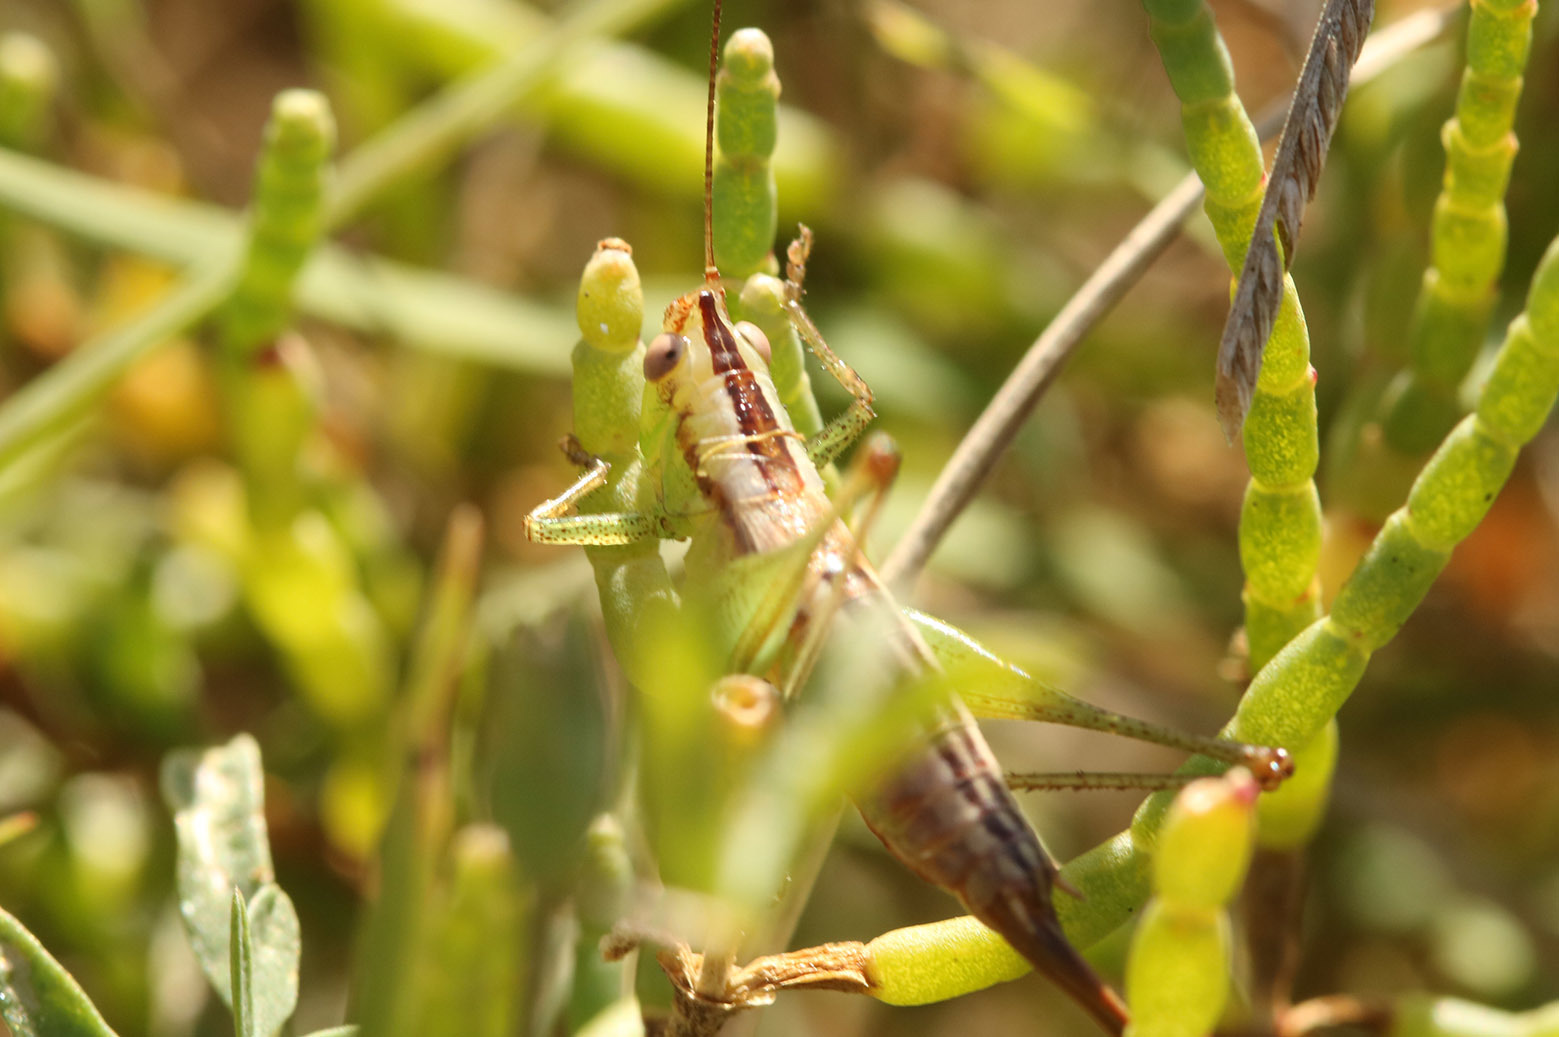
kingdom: Animalia
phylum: Arthropoda
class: Insecta
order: Orthoptera
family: Tettigoniidae
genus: Conocephalus
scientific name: Conocephalus doryphorus
